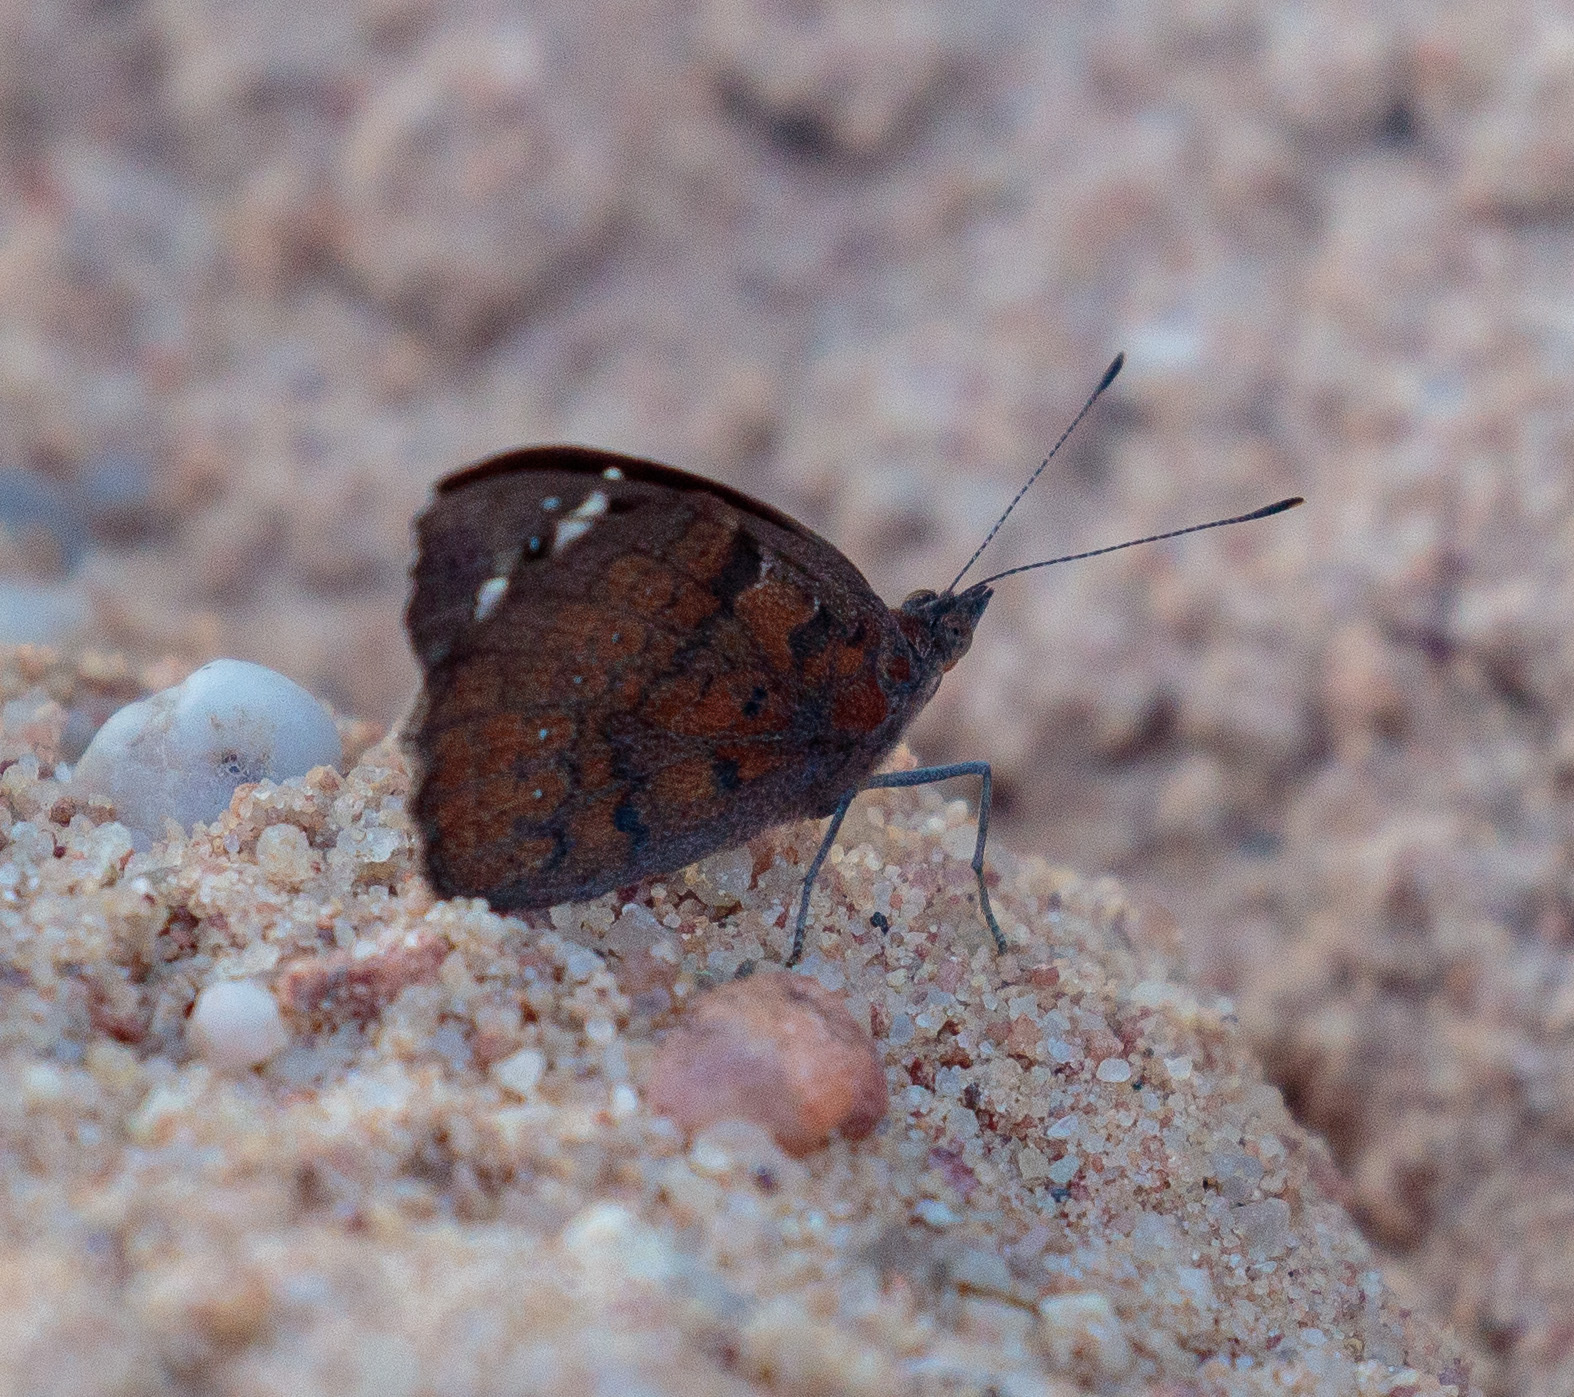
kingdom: Animalia
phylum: Arthropoda
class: Insecta
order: Lepidoptera
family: Nymphalidae
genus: Eunica
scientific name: Eunica tatila
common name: Florida purplewing
